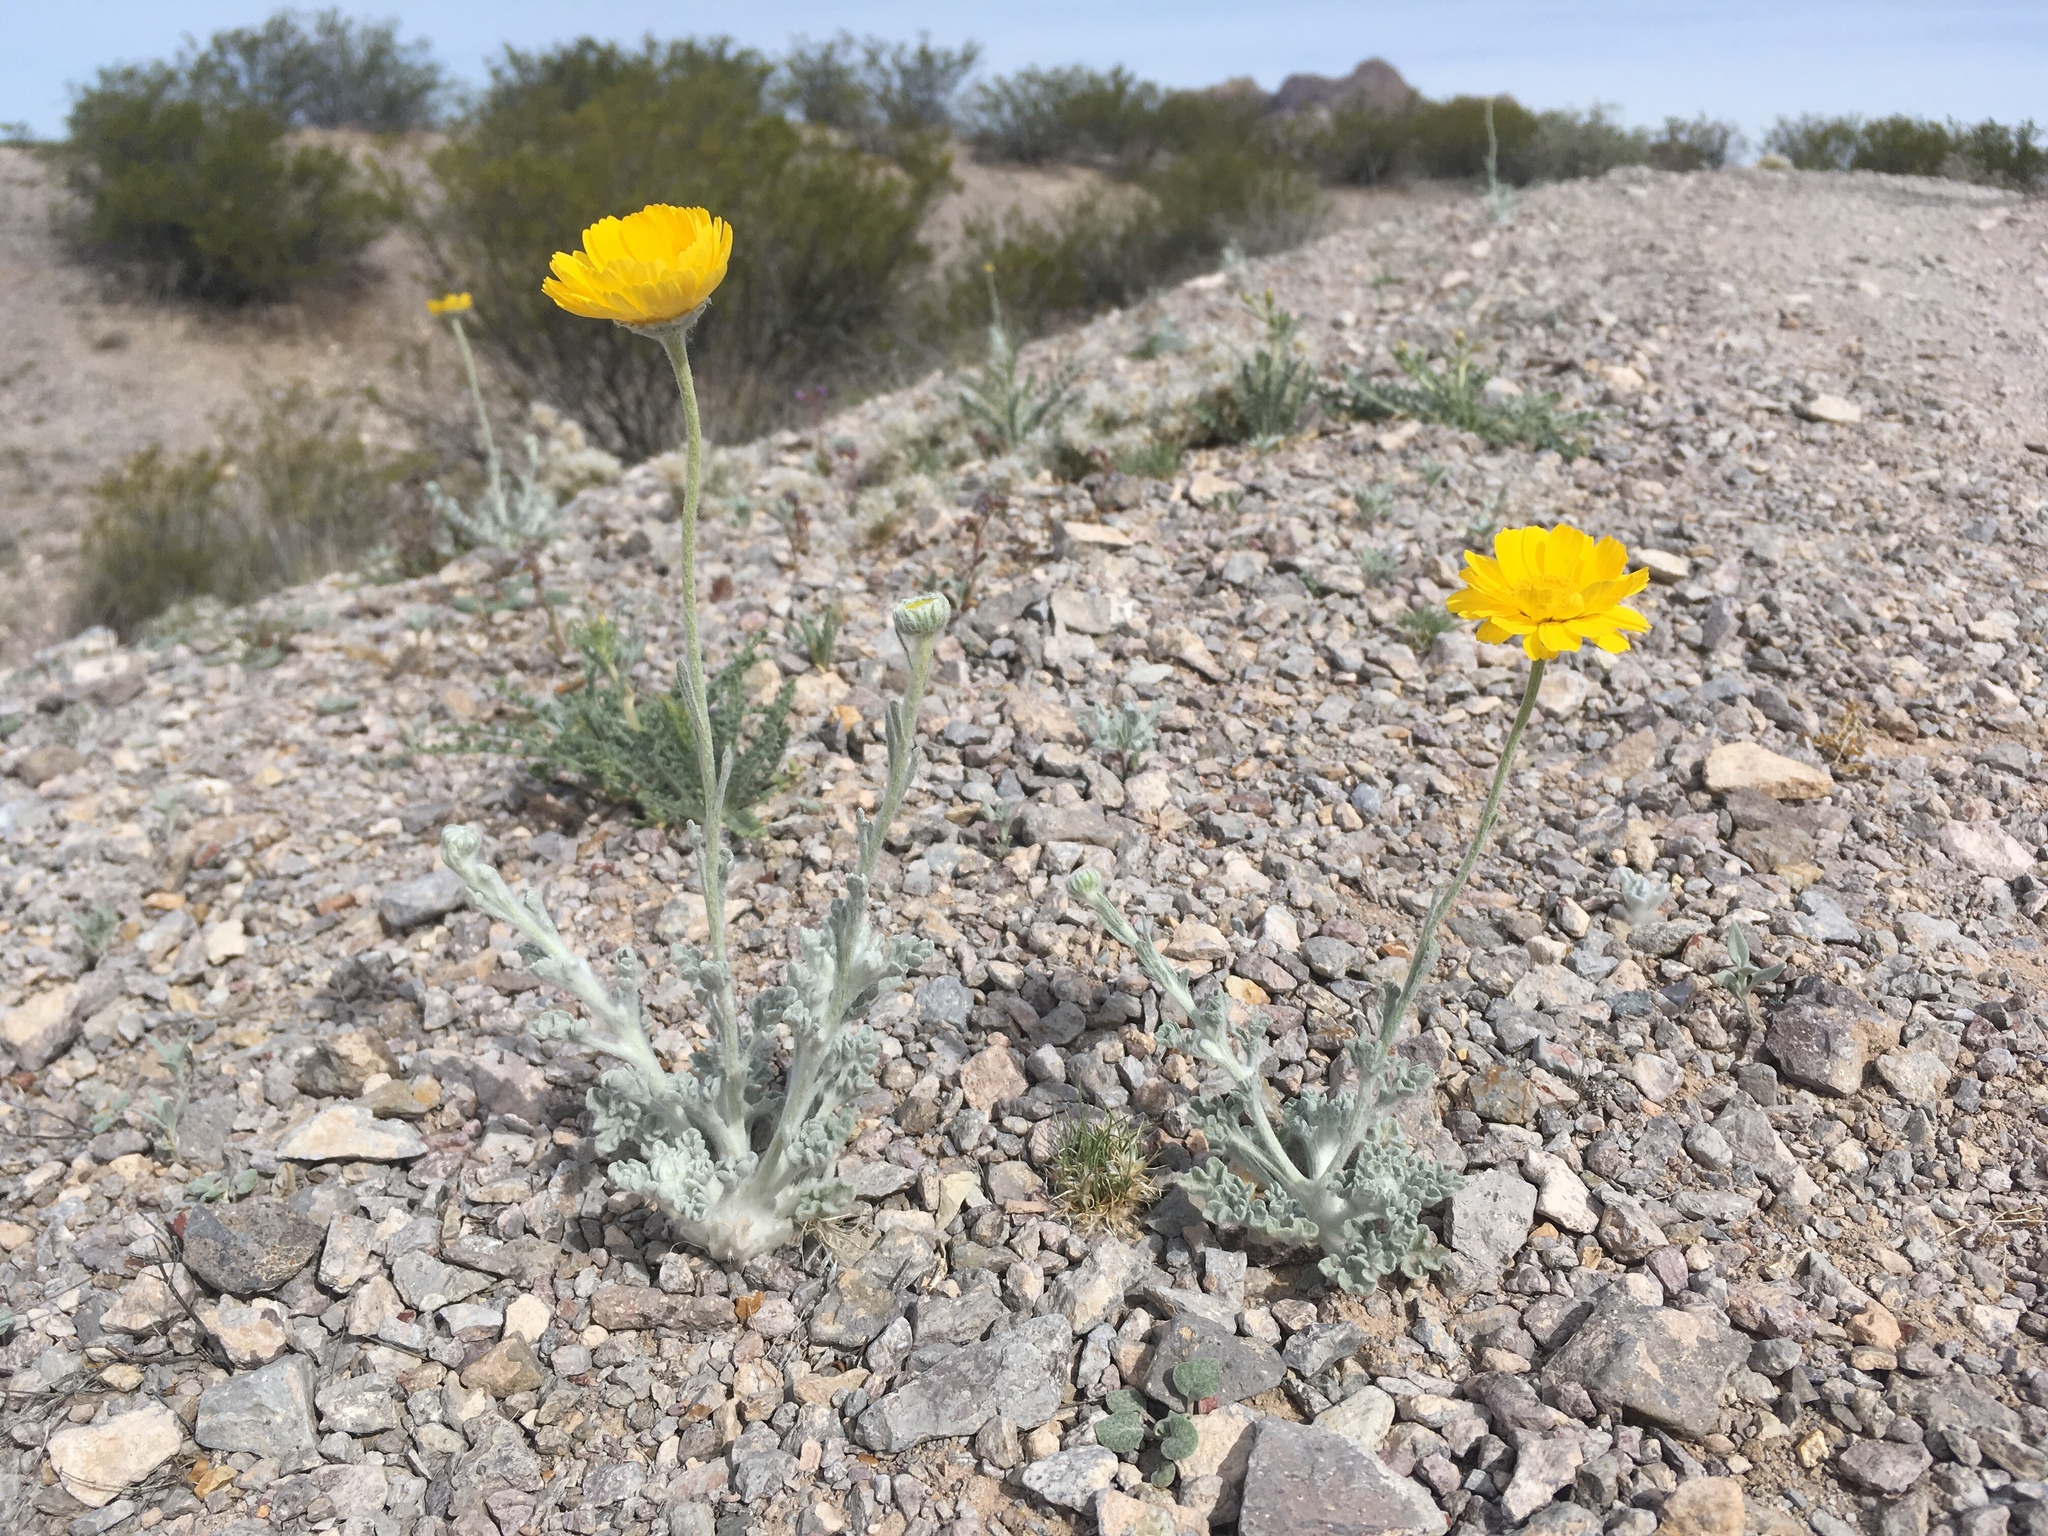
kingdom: Plantae
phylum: Tracheophyta
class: Magnoliopsida
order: Asterales
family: Asteraceae
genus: Baileya
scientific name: Baileya multiradiata
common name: Desert-marigold
